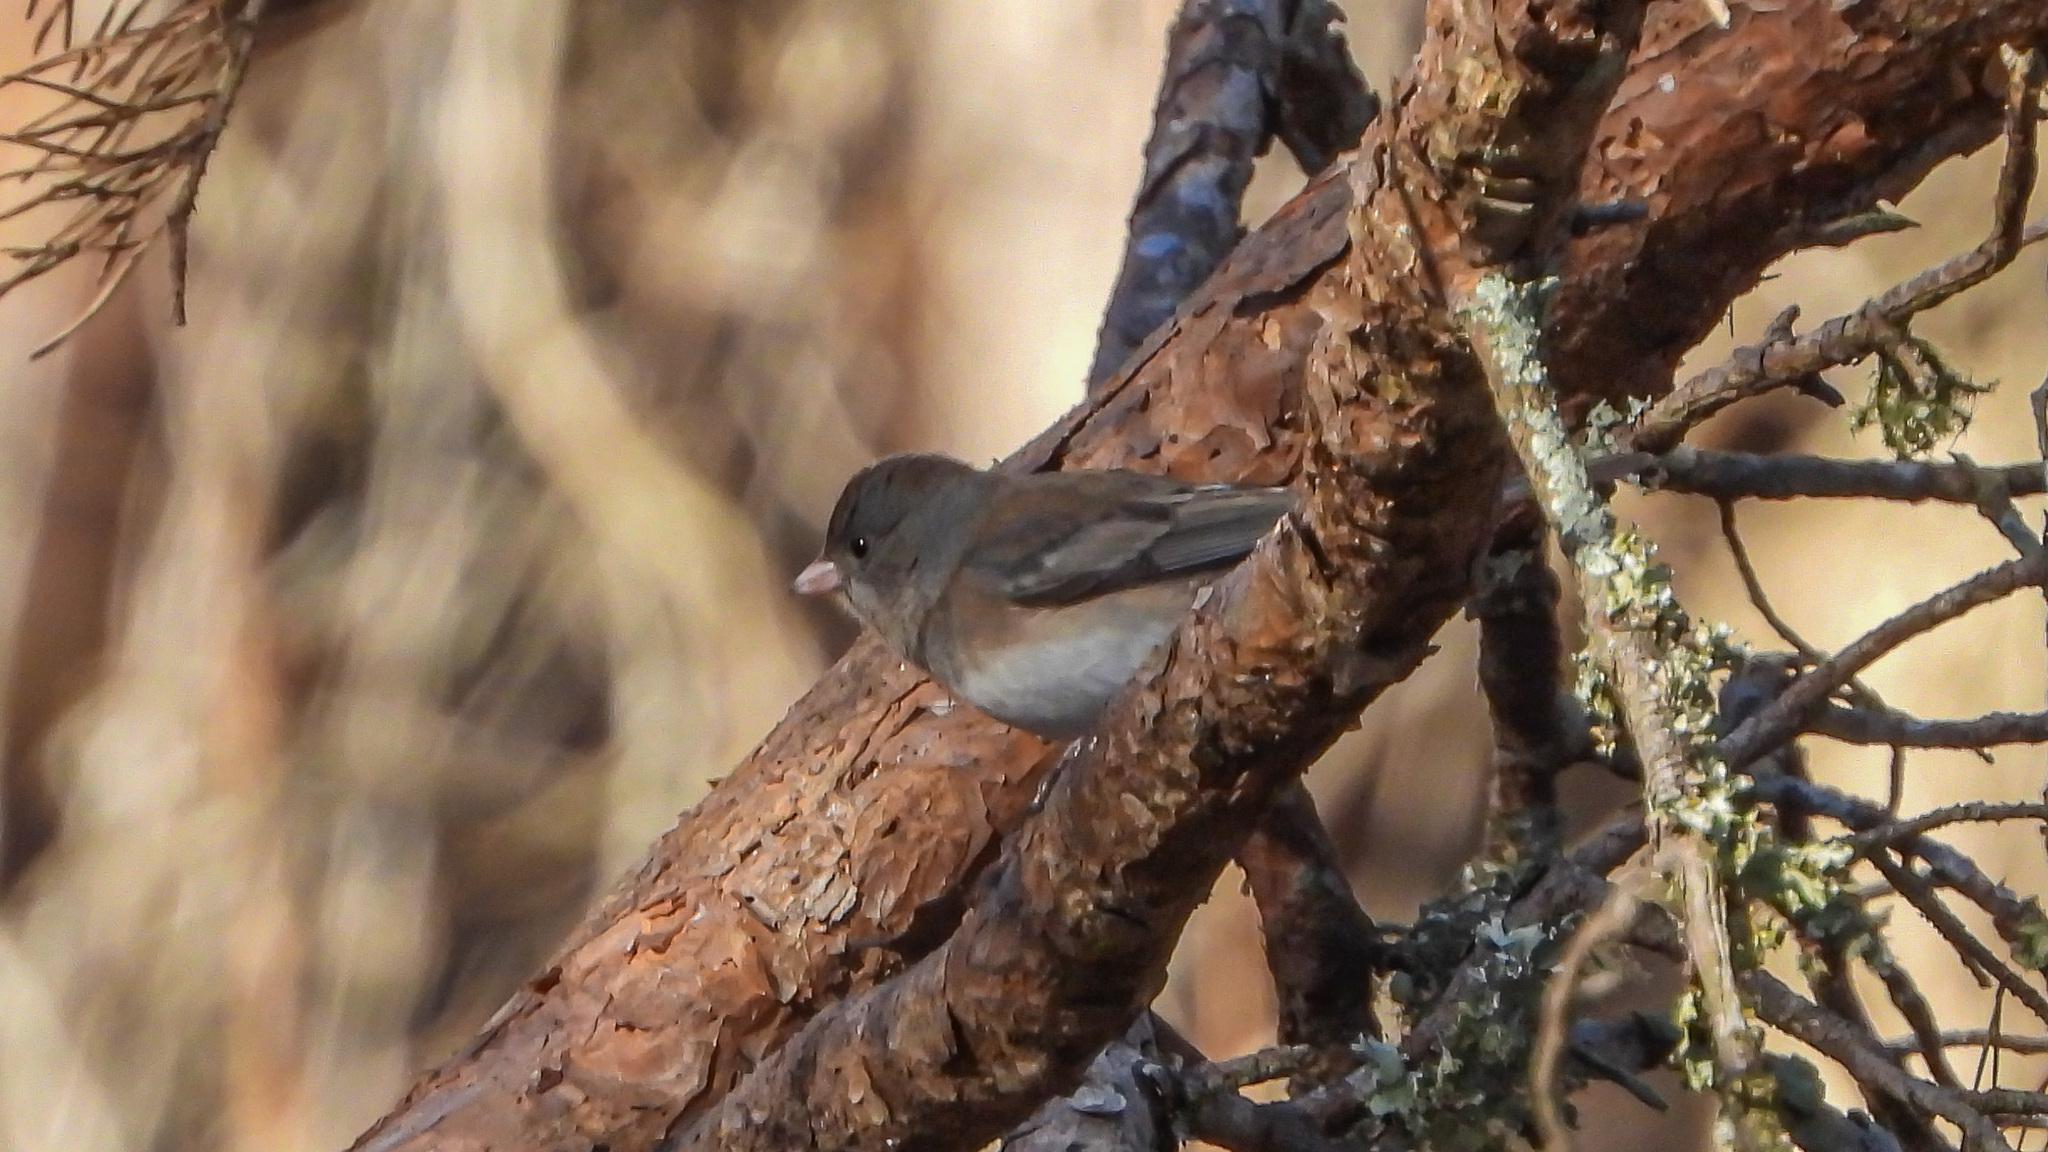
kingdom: Animalia
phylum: Chordata
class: Aves
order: Passeriformes
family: Passerellidae
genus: Junco
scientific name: Junco hyemalis
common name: Dark-eyed junco
